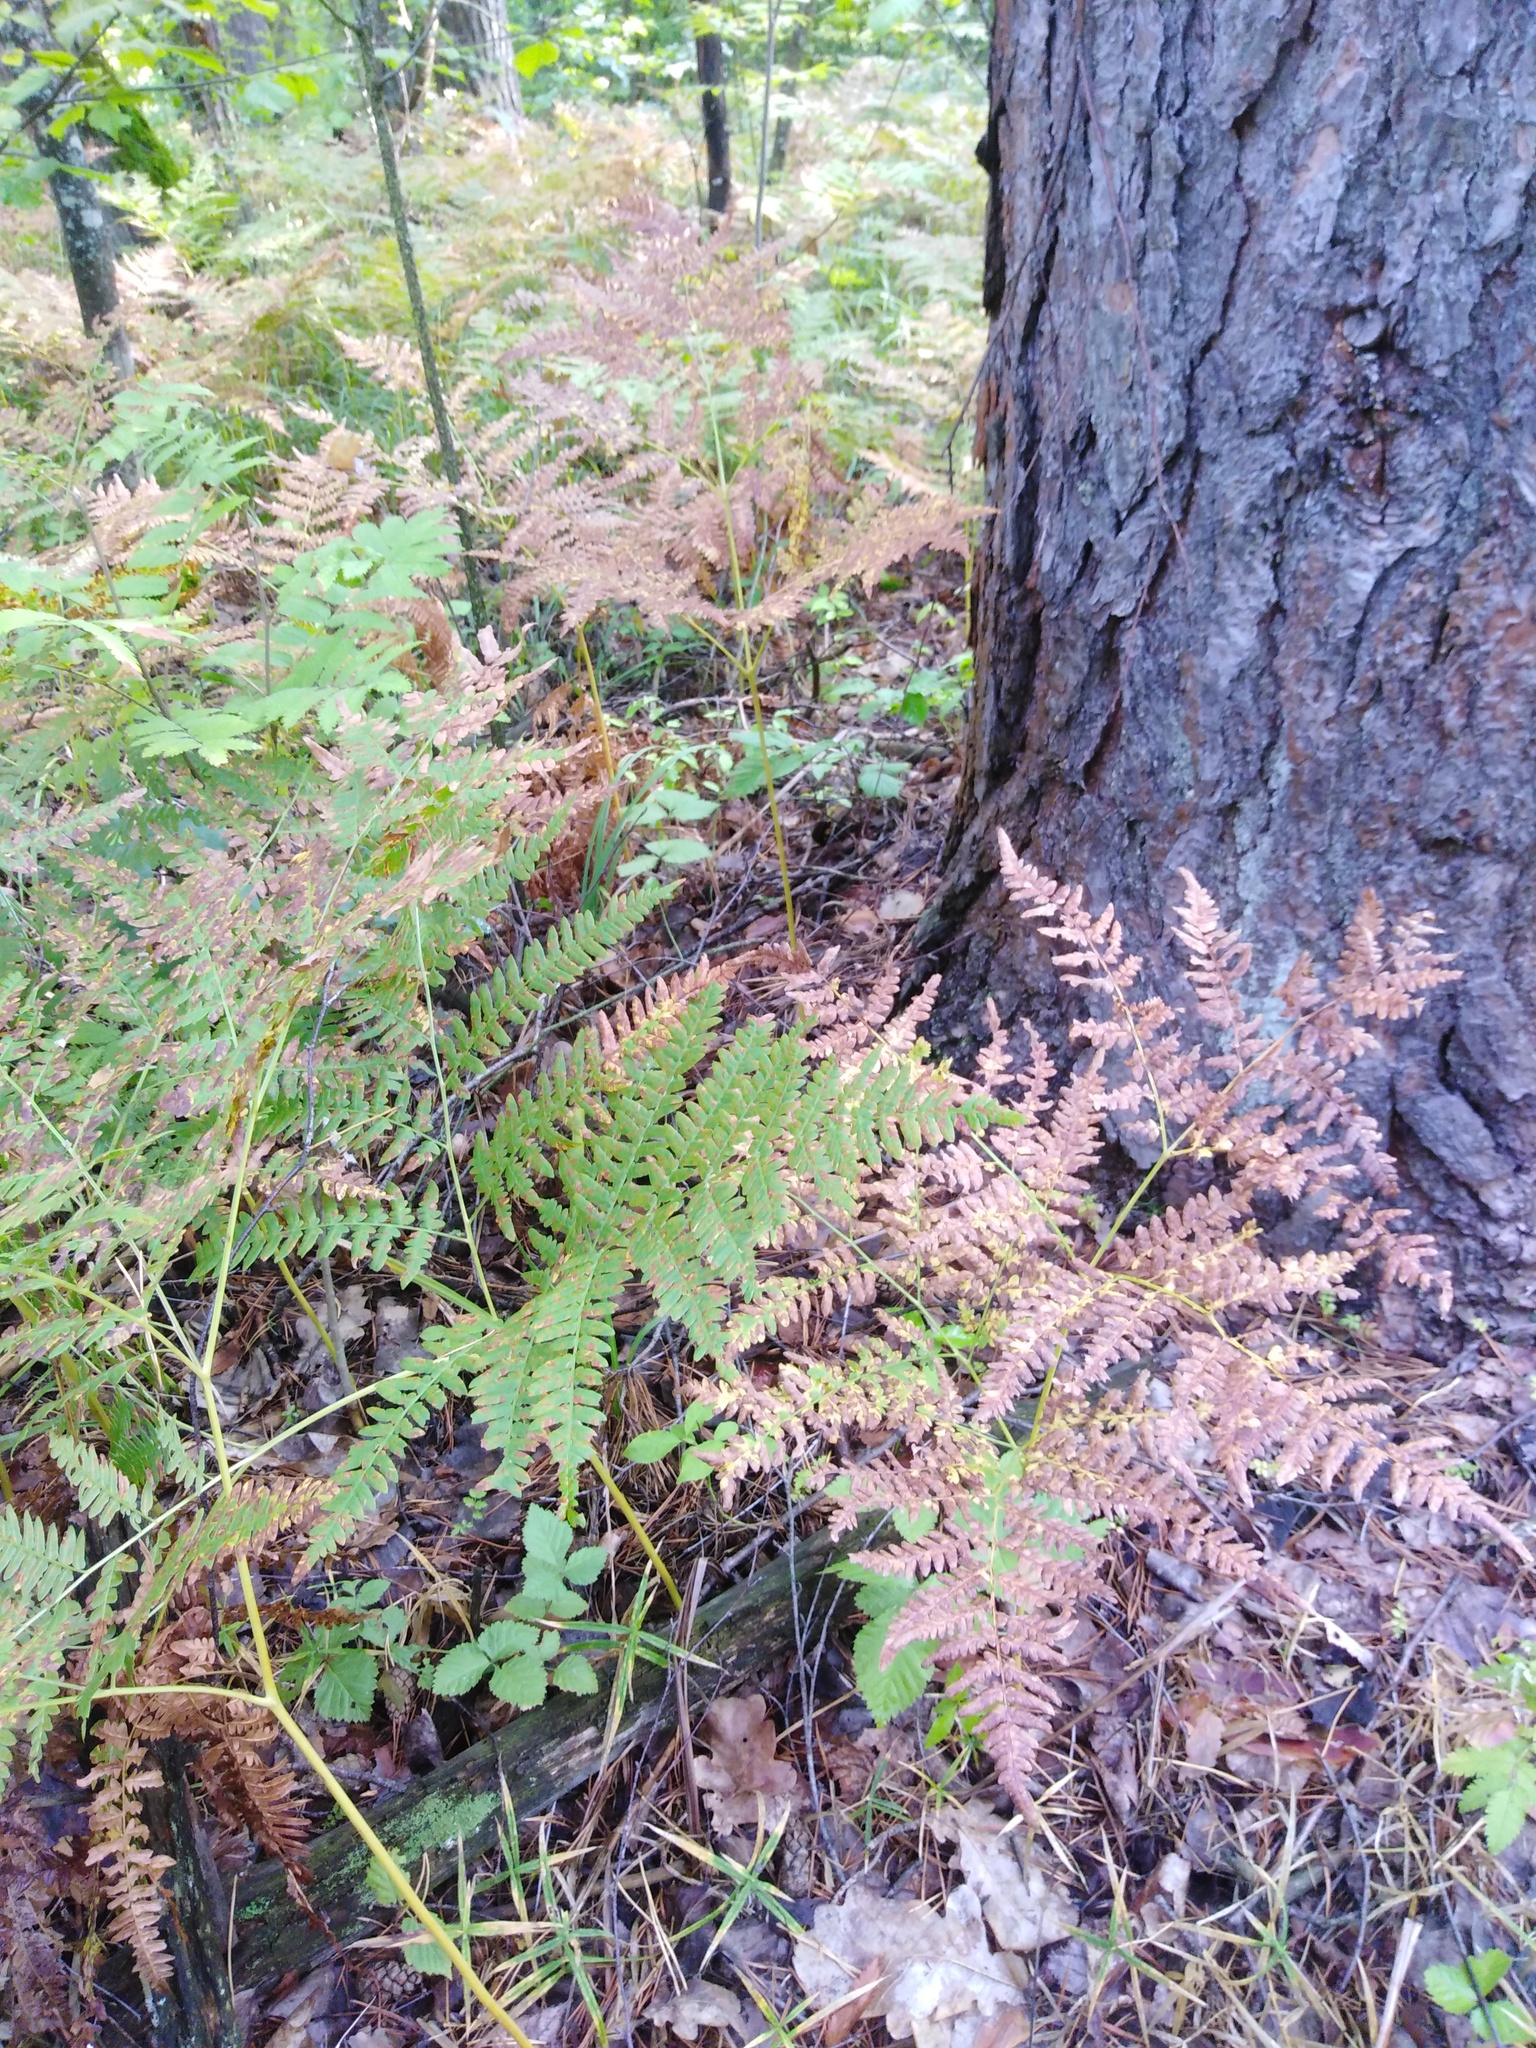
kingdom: Plantae
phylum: Tracheophyta
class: Polypodiopsida
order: Polypodiales
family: Dennstaedtiaceae
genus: Pteridium
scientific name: Pteridium aquilinum
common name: Bracken
